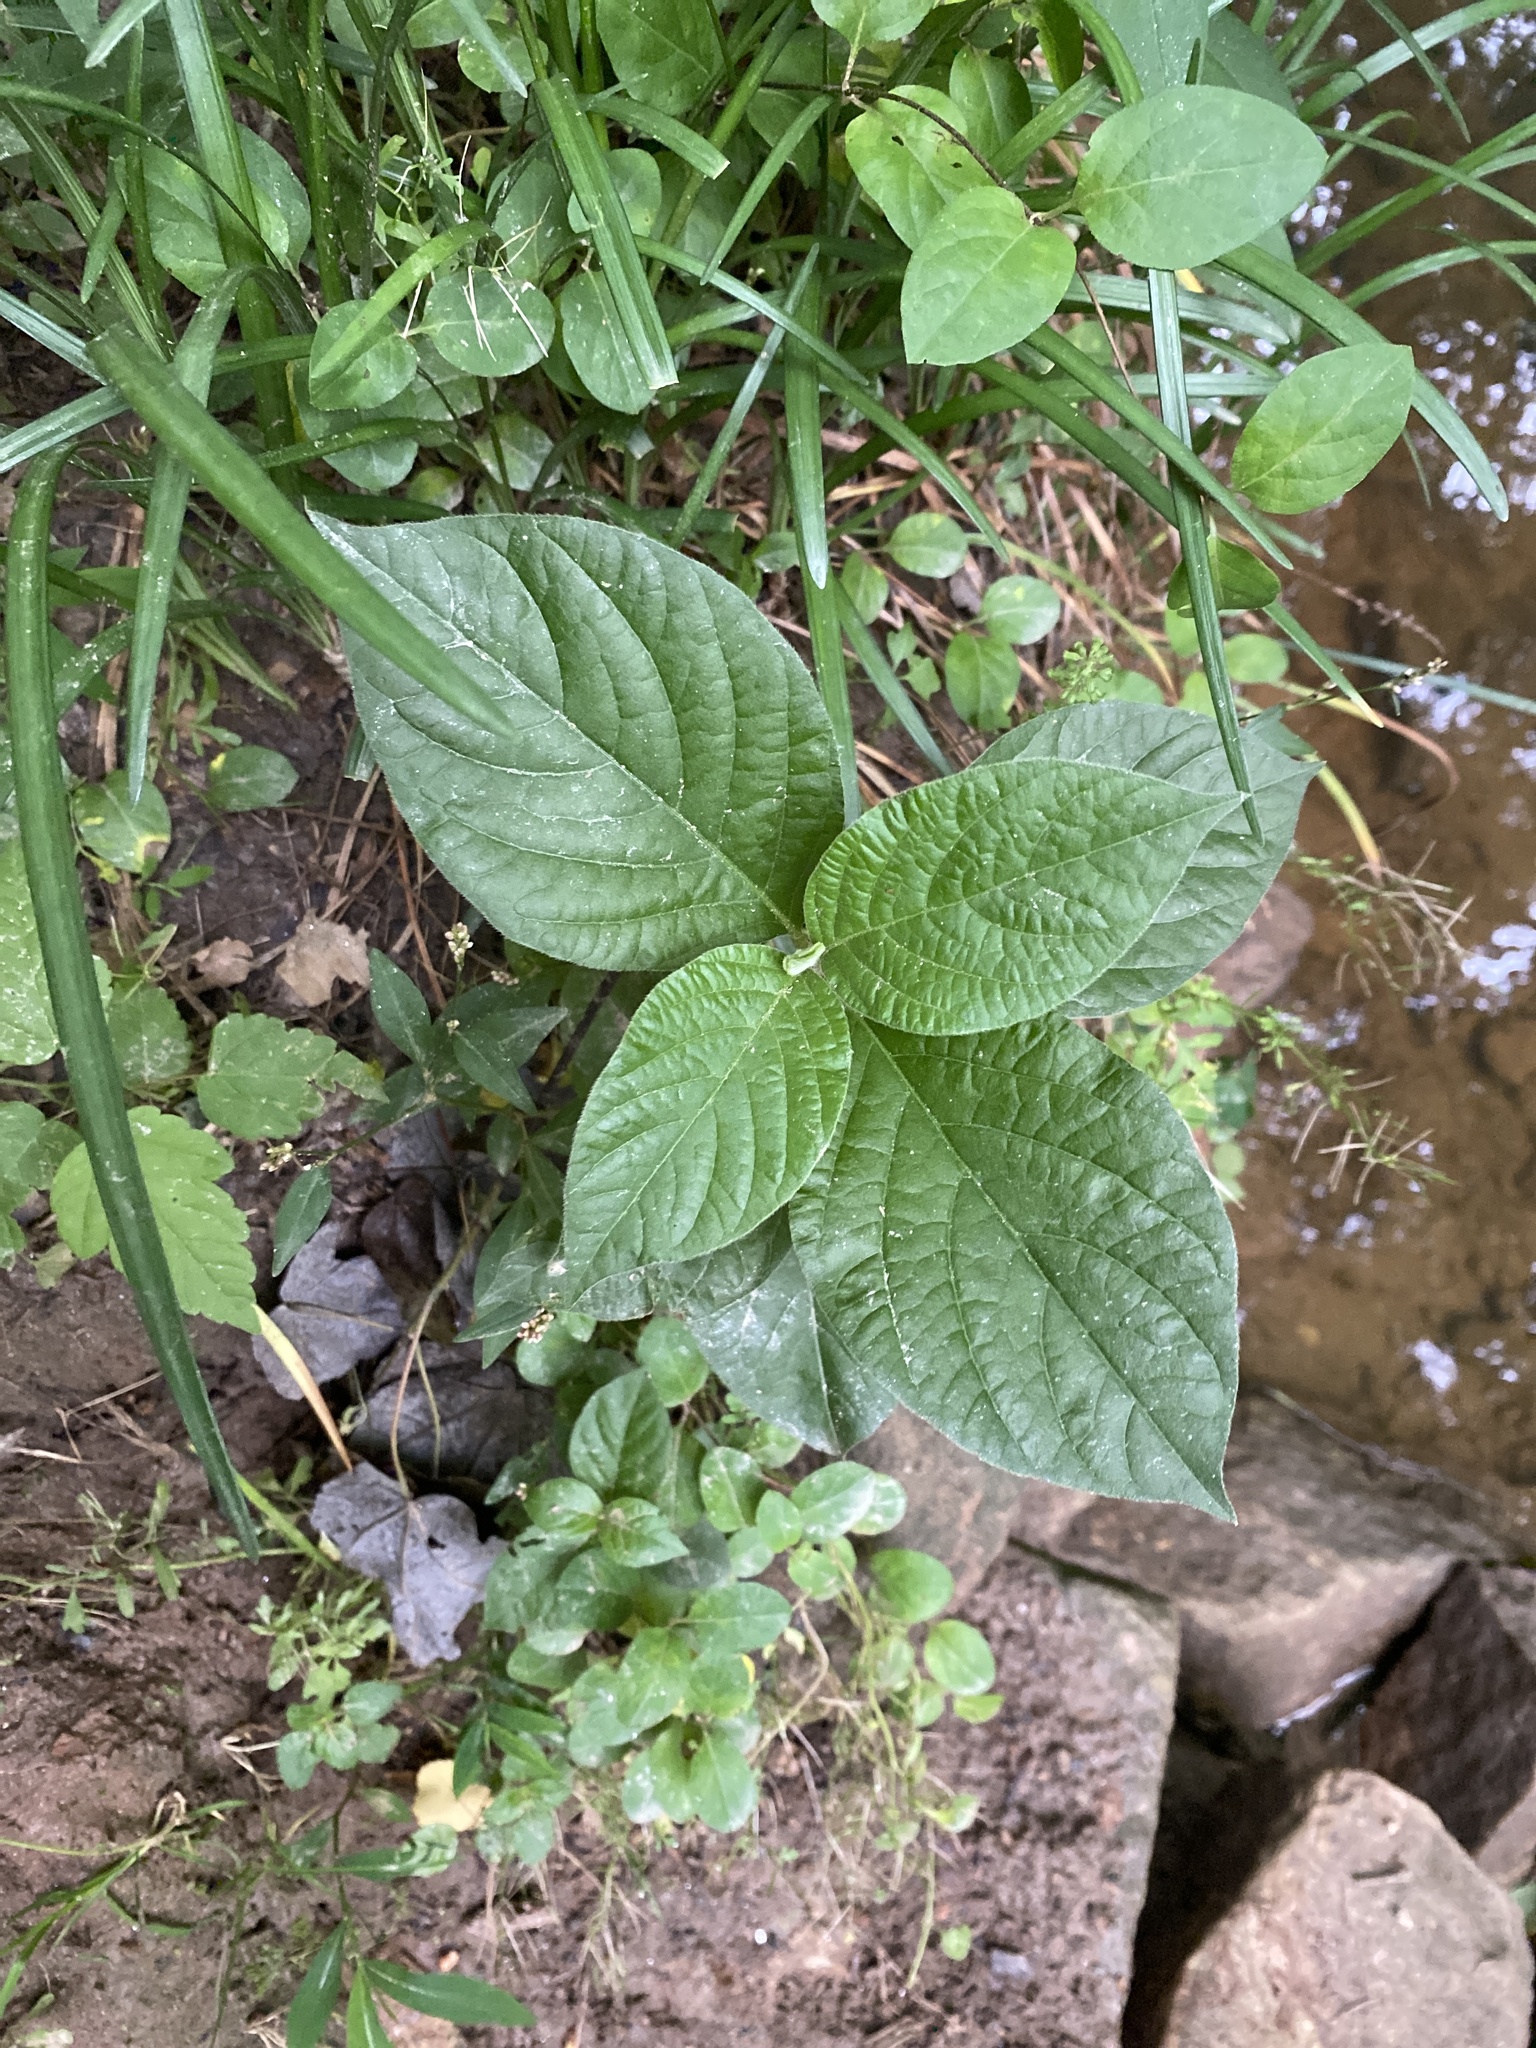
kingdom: Plantae
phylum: Tracheophyta
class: Magnoliopsida
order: Caryophyllales
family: Amaranthaceae
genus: Achyranthes
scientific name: Achyranthes bidentata
